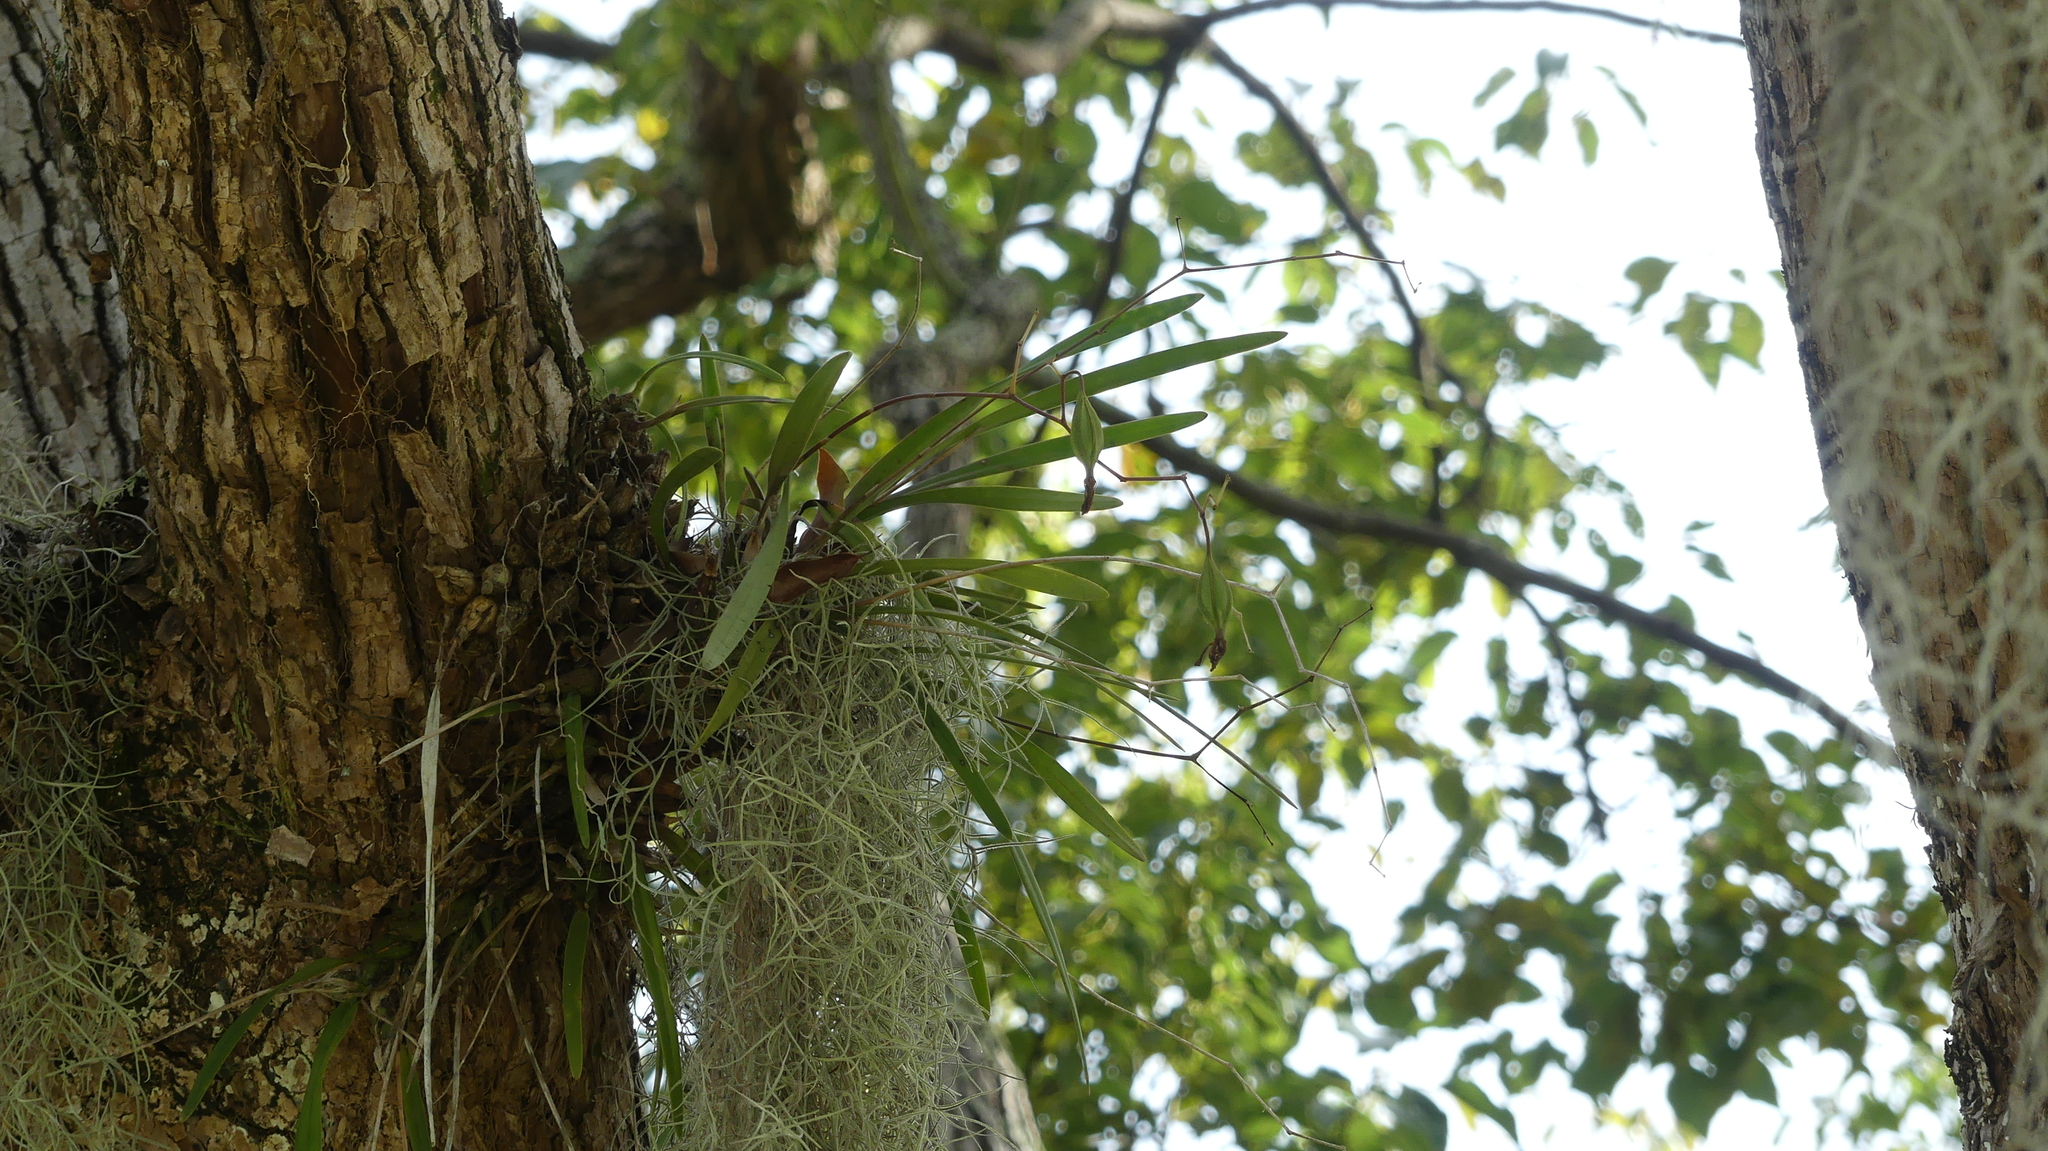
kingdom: Plantae
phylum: Tracheophyta
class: Liliopsida
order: Asparagales
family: Orchidaceae
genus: Encyclia
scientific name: Encyclia tampensis
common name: Florida butterfly orchid
